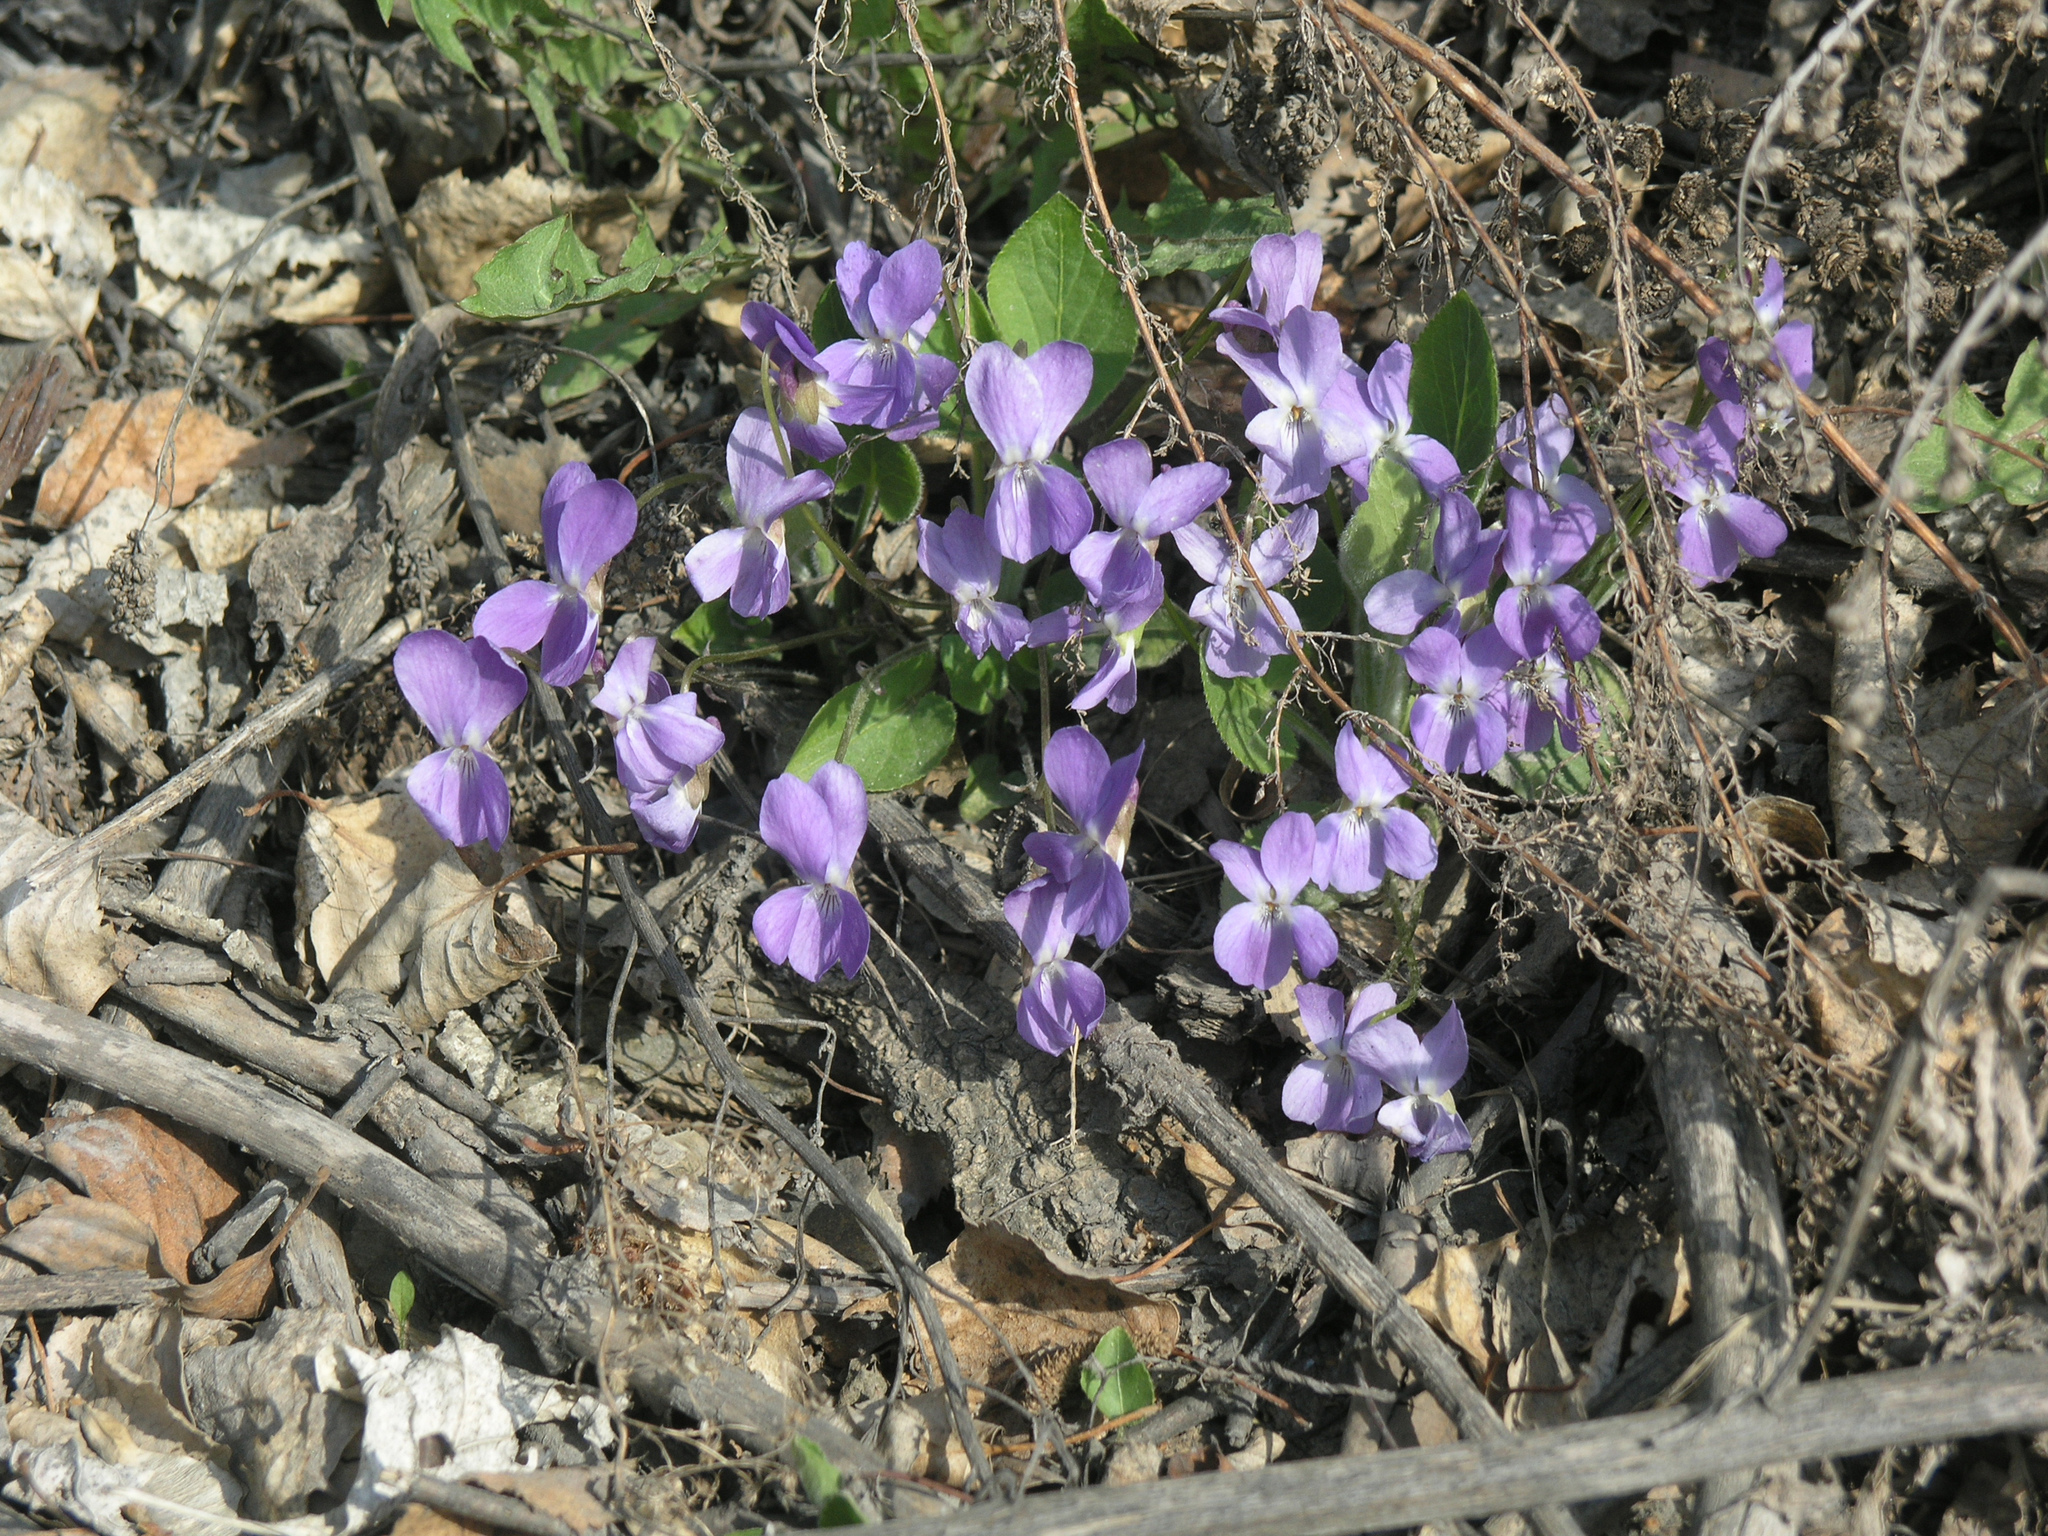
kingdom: Plantae
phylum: Tracheophyta
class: Magnoliopsida
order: Malpighiales
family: Violaceae
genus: Viola
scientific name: Viola hirta
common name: Hairy violet
